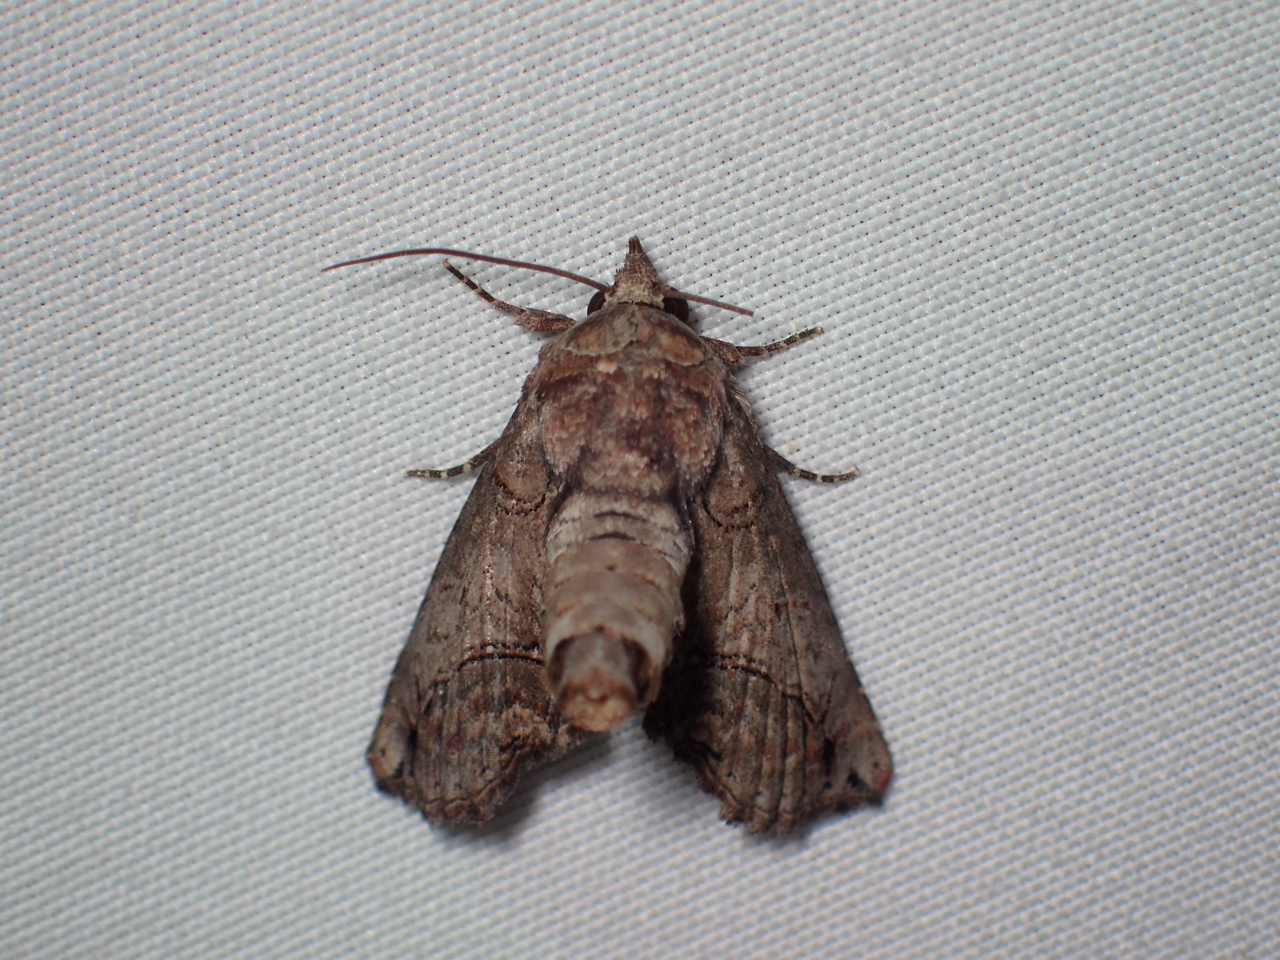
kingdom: Animalia
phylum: Arthropoda
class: Insecta
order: Lepidoptera
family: Euteliidae
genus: Paectes
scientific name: Paectes abrostoloides
